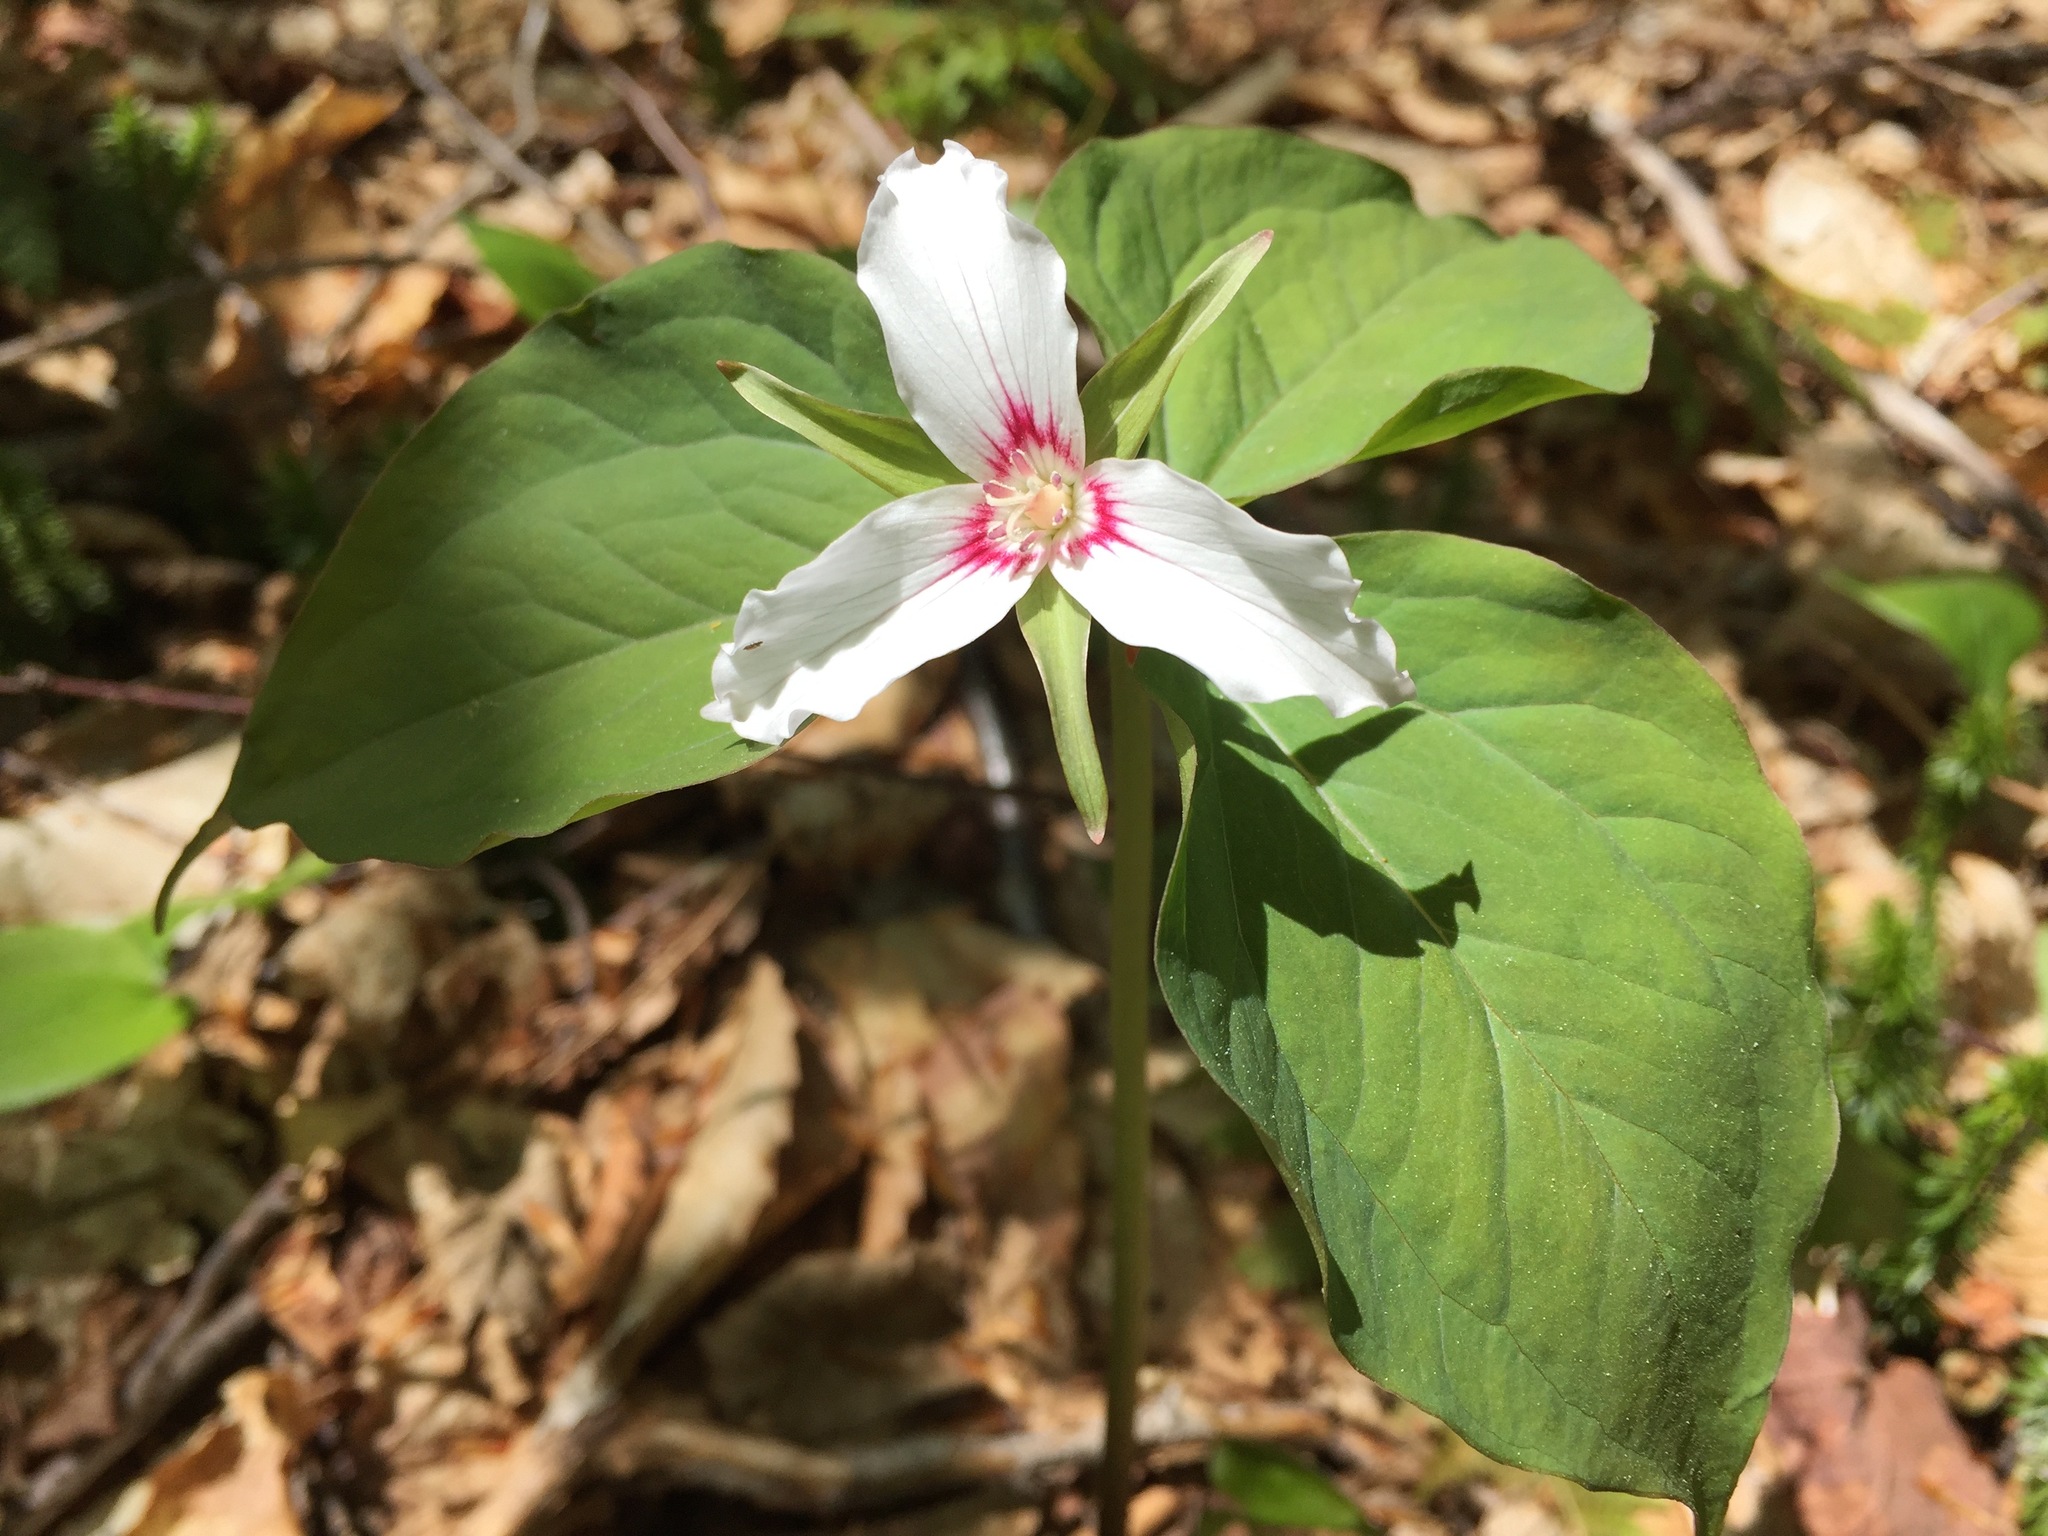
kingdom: Plantae
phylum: Tracheophyta
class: Liliopsida
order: Liliales
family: Melanthiaceae
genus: Trillium
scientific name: Trillium undulatum
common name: Paint trillium
